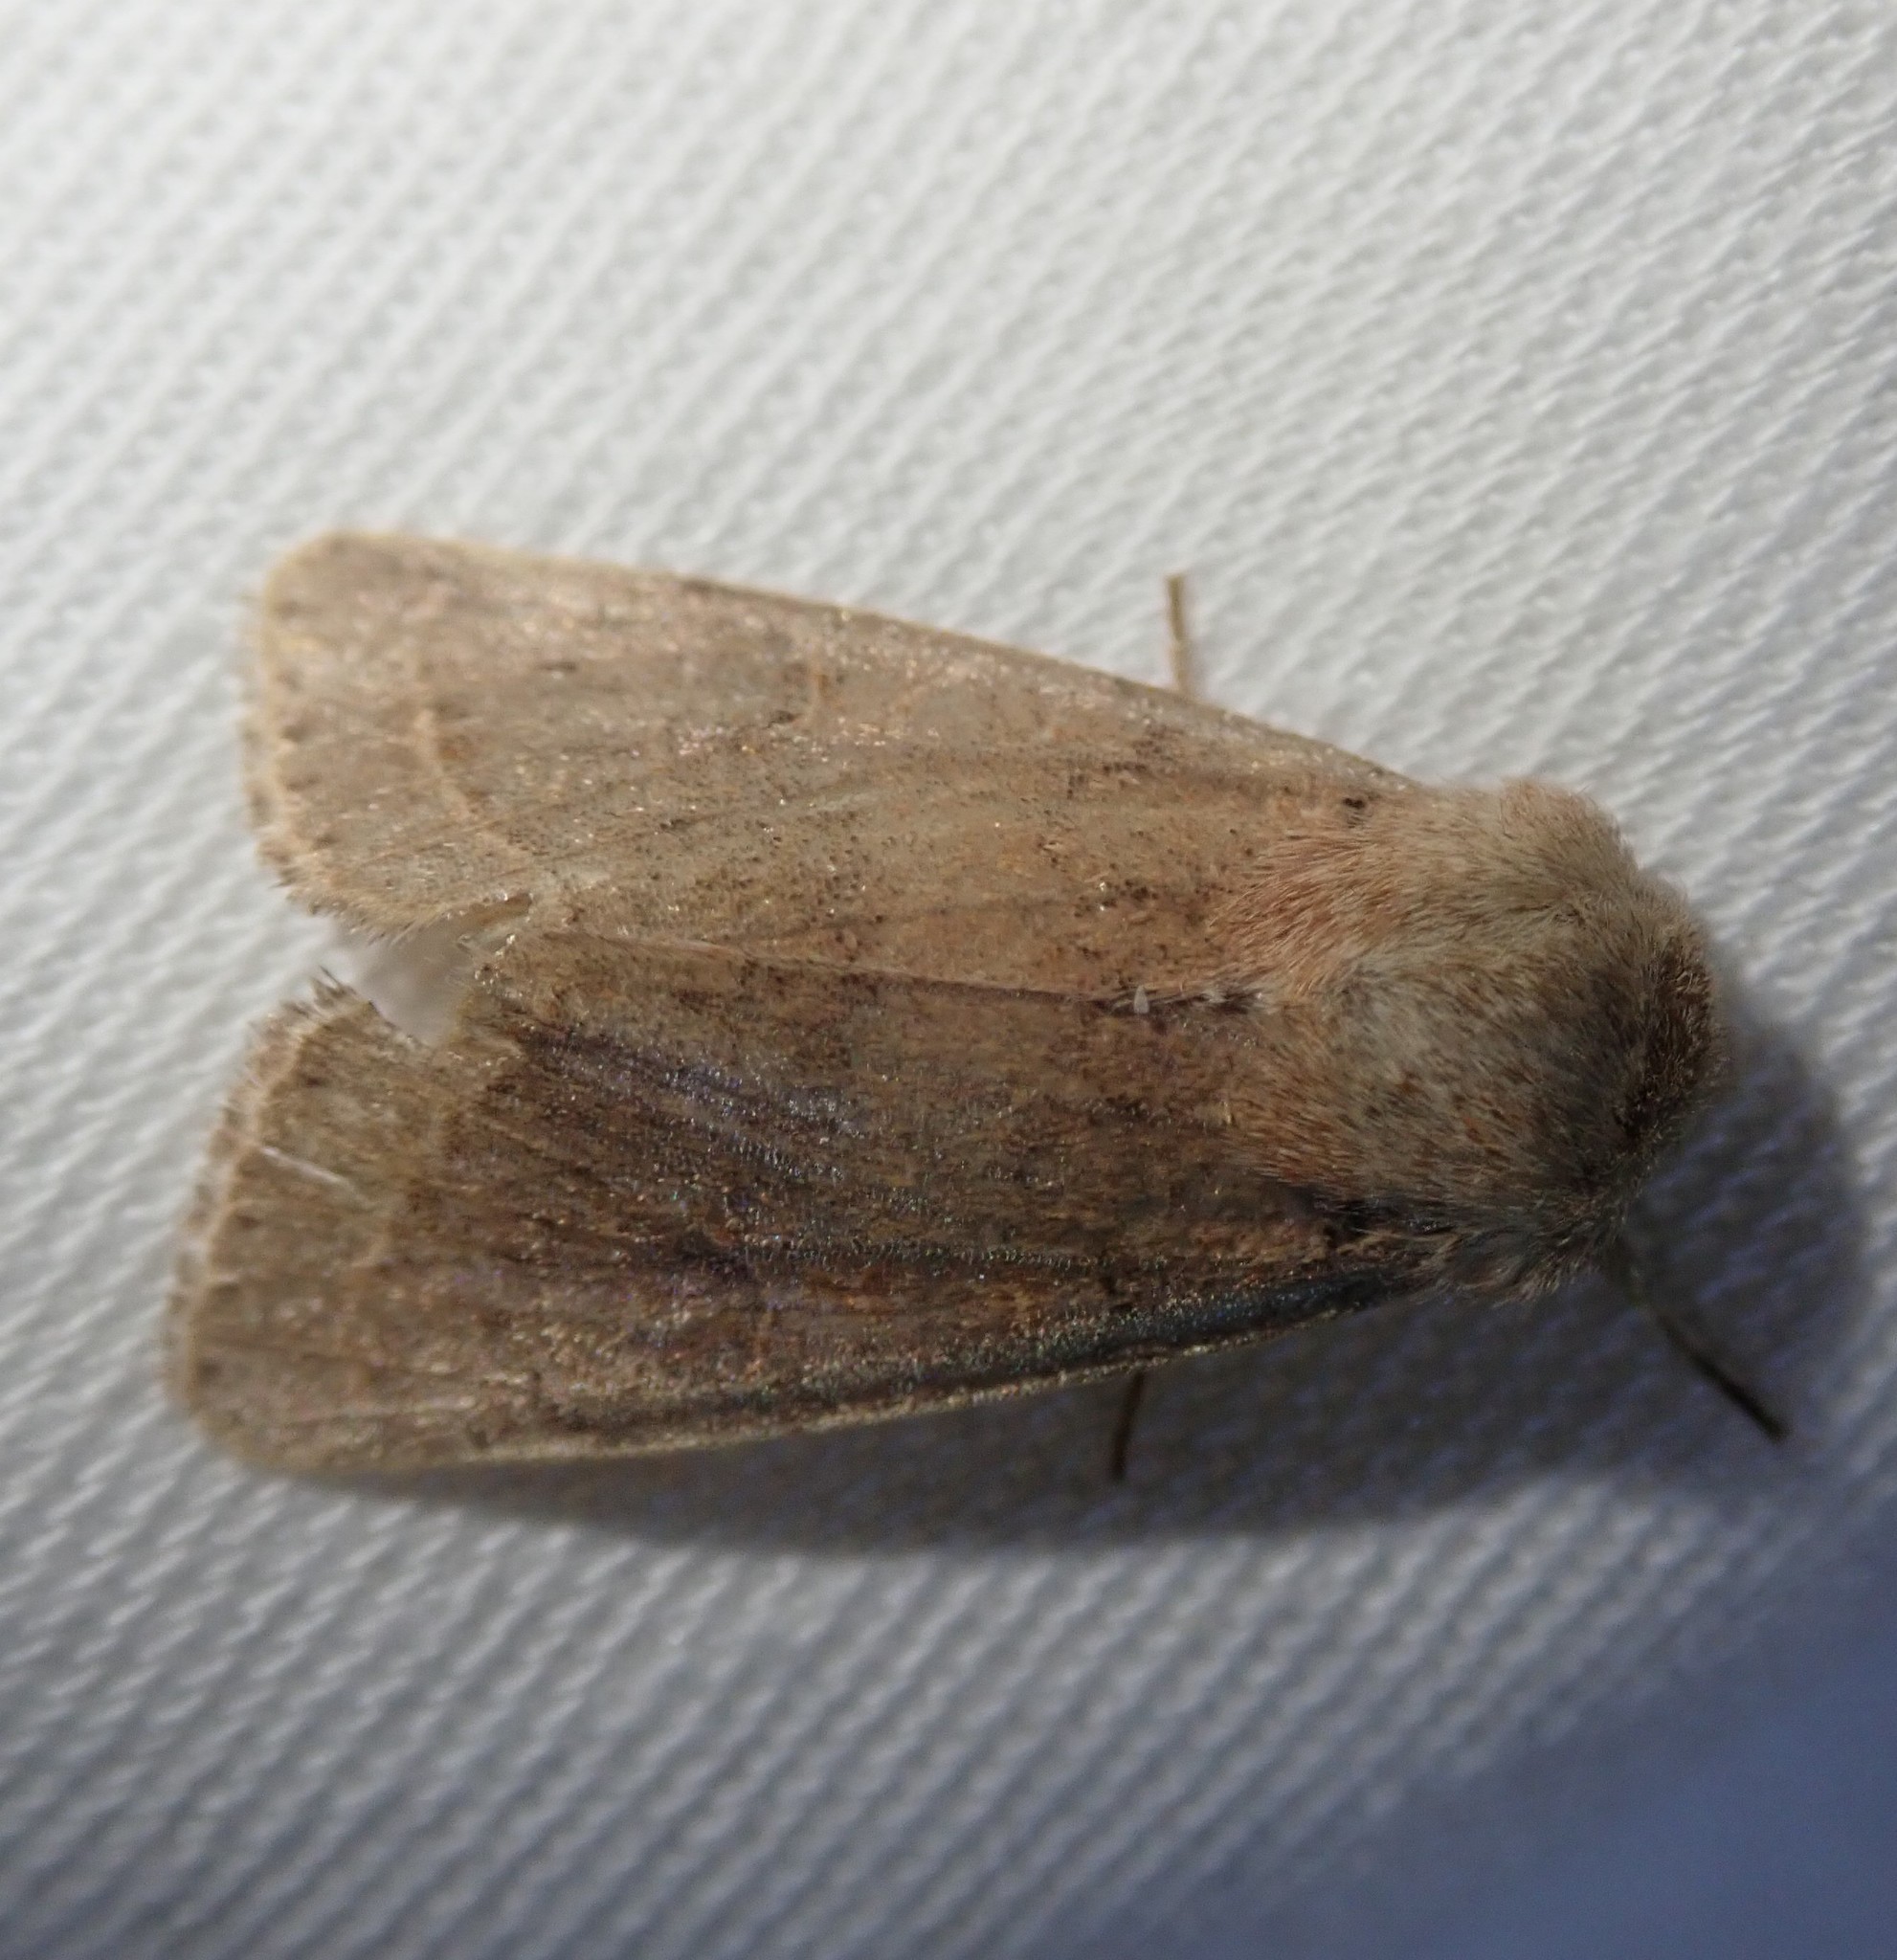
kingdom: Animalia
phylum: Arthropoda
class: Insecta
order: Lepidoptera
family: Noctuidae
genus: Orthosia
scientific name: Orthosia cerasi
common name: Common quaker
